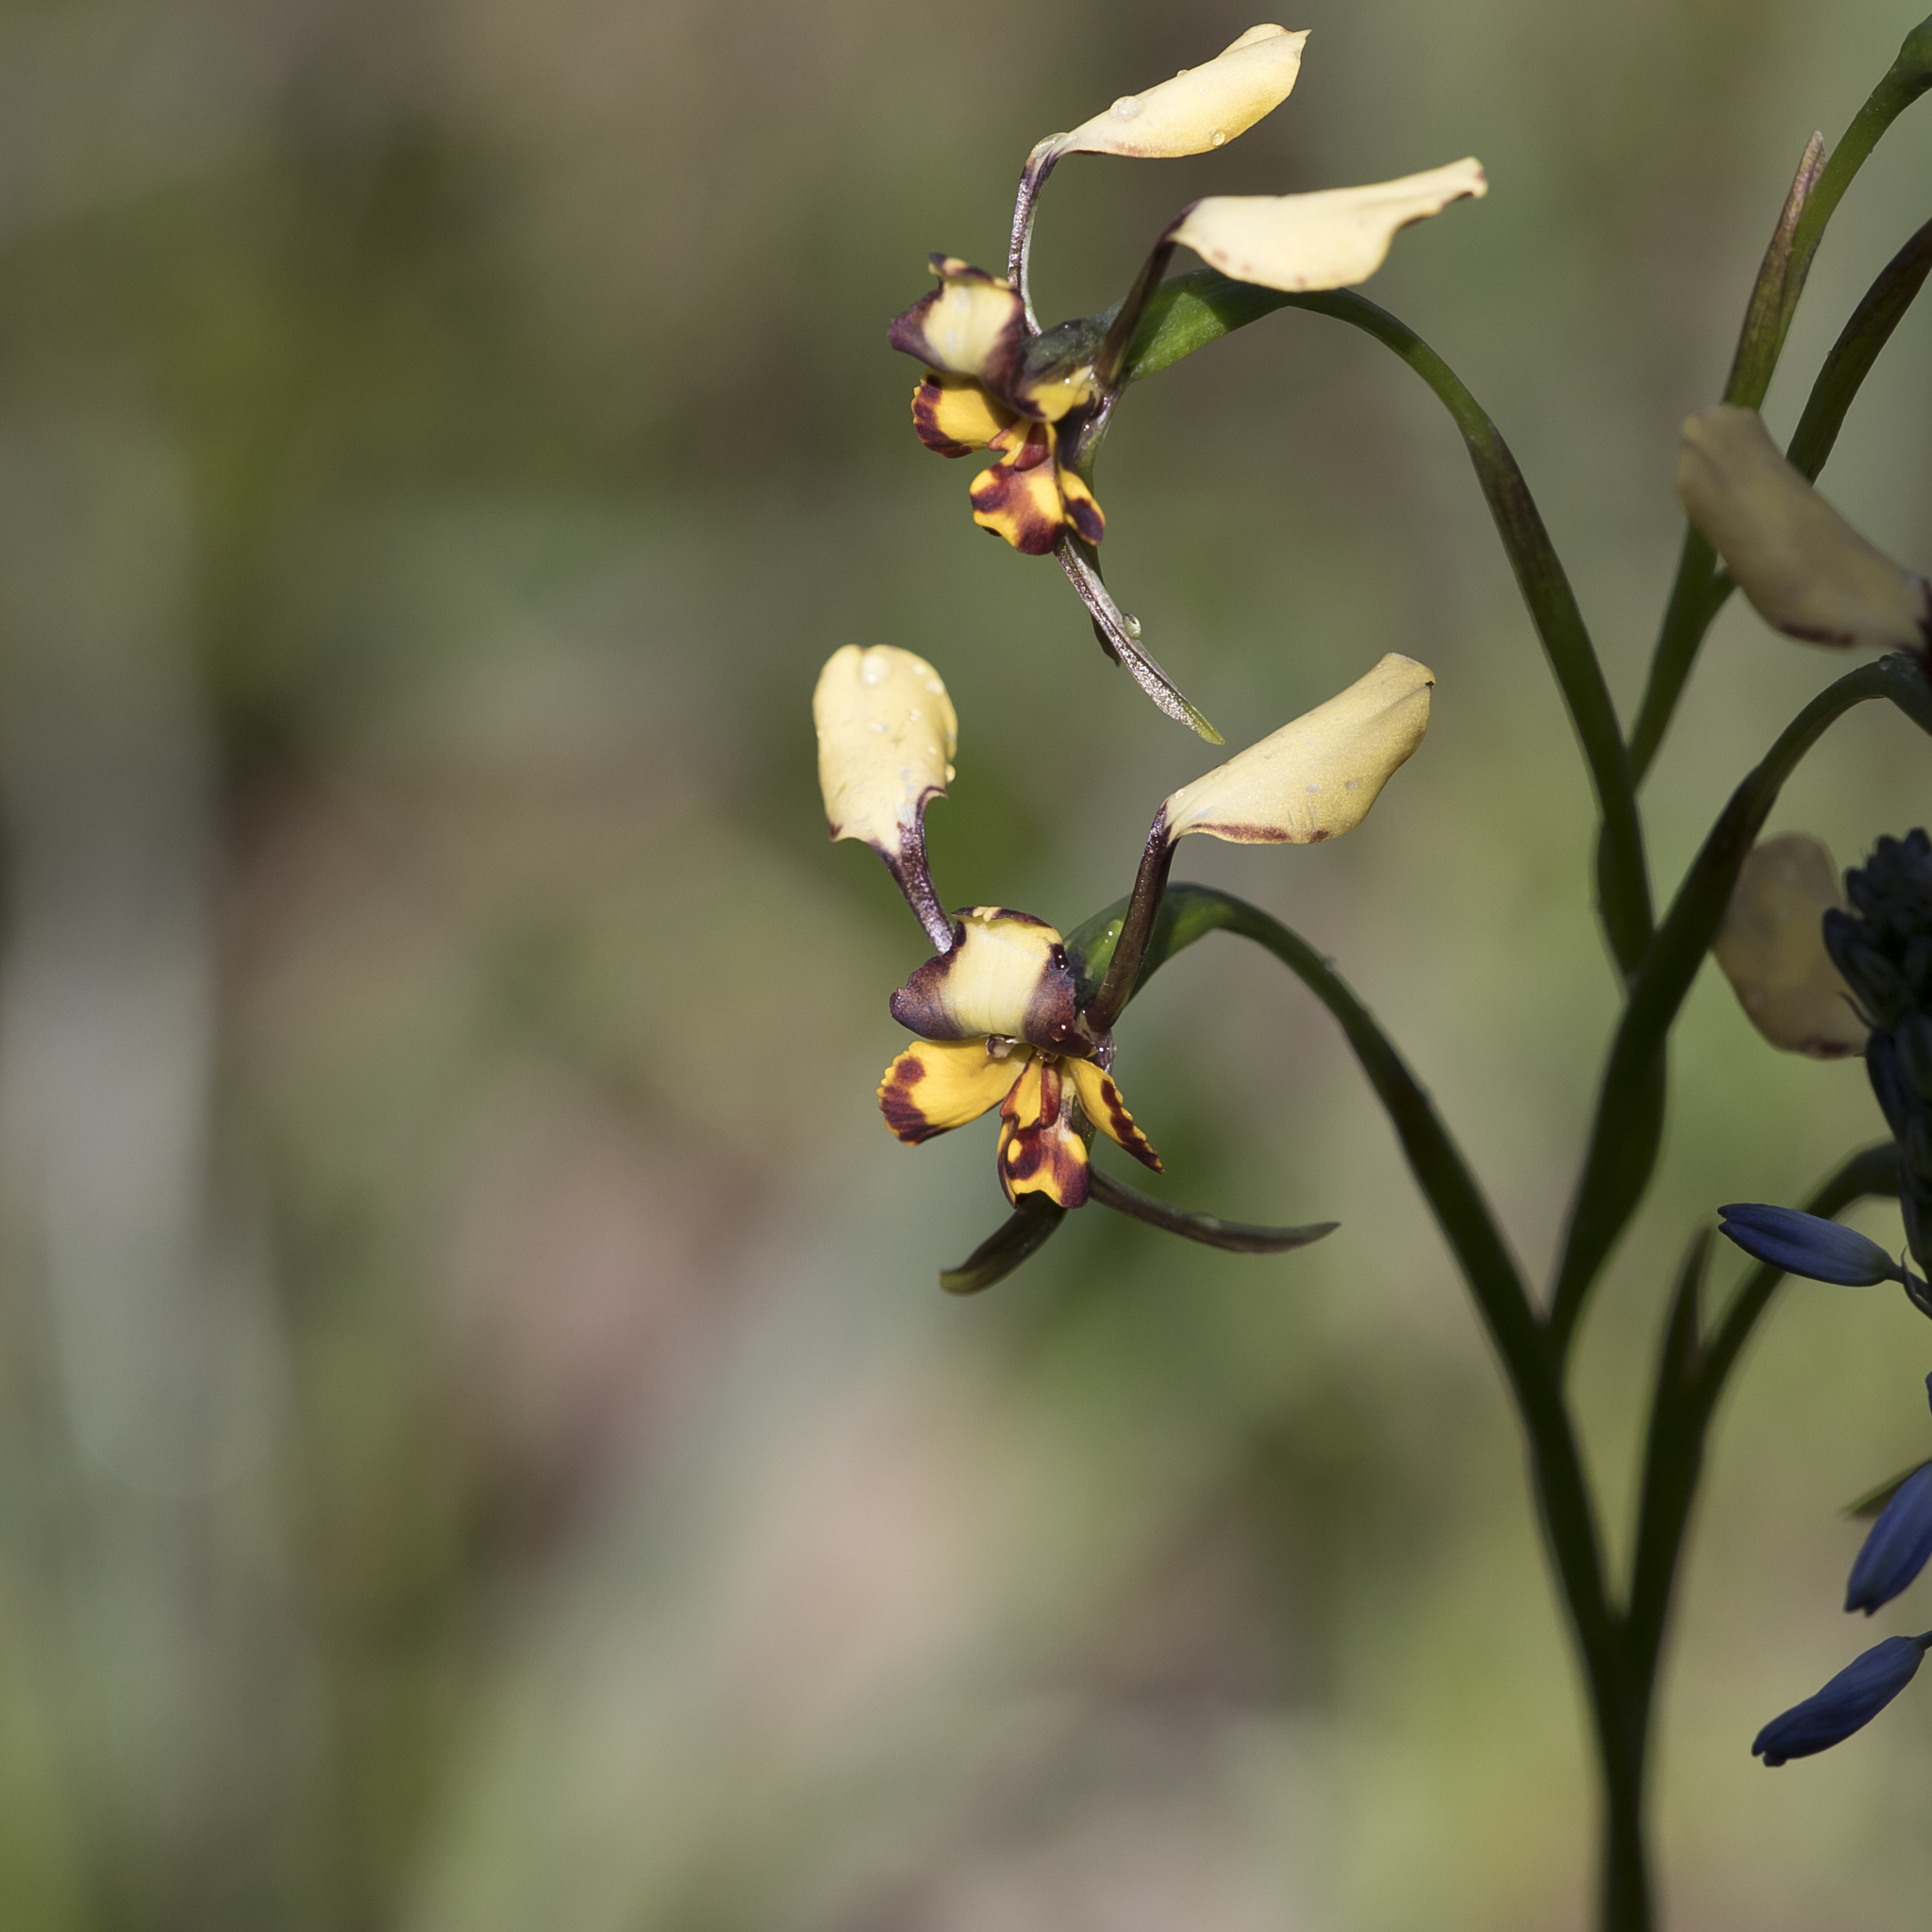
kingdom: Plantae
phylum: Tracheophyta
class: Liliopsida
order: Asparagales
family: Orchidaceae
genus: Diuris
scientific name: Diuris pardina
